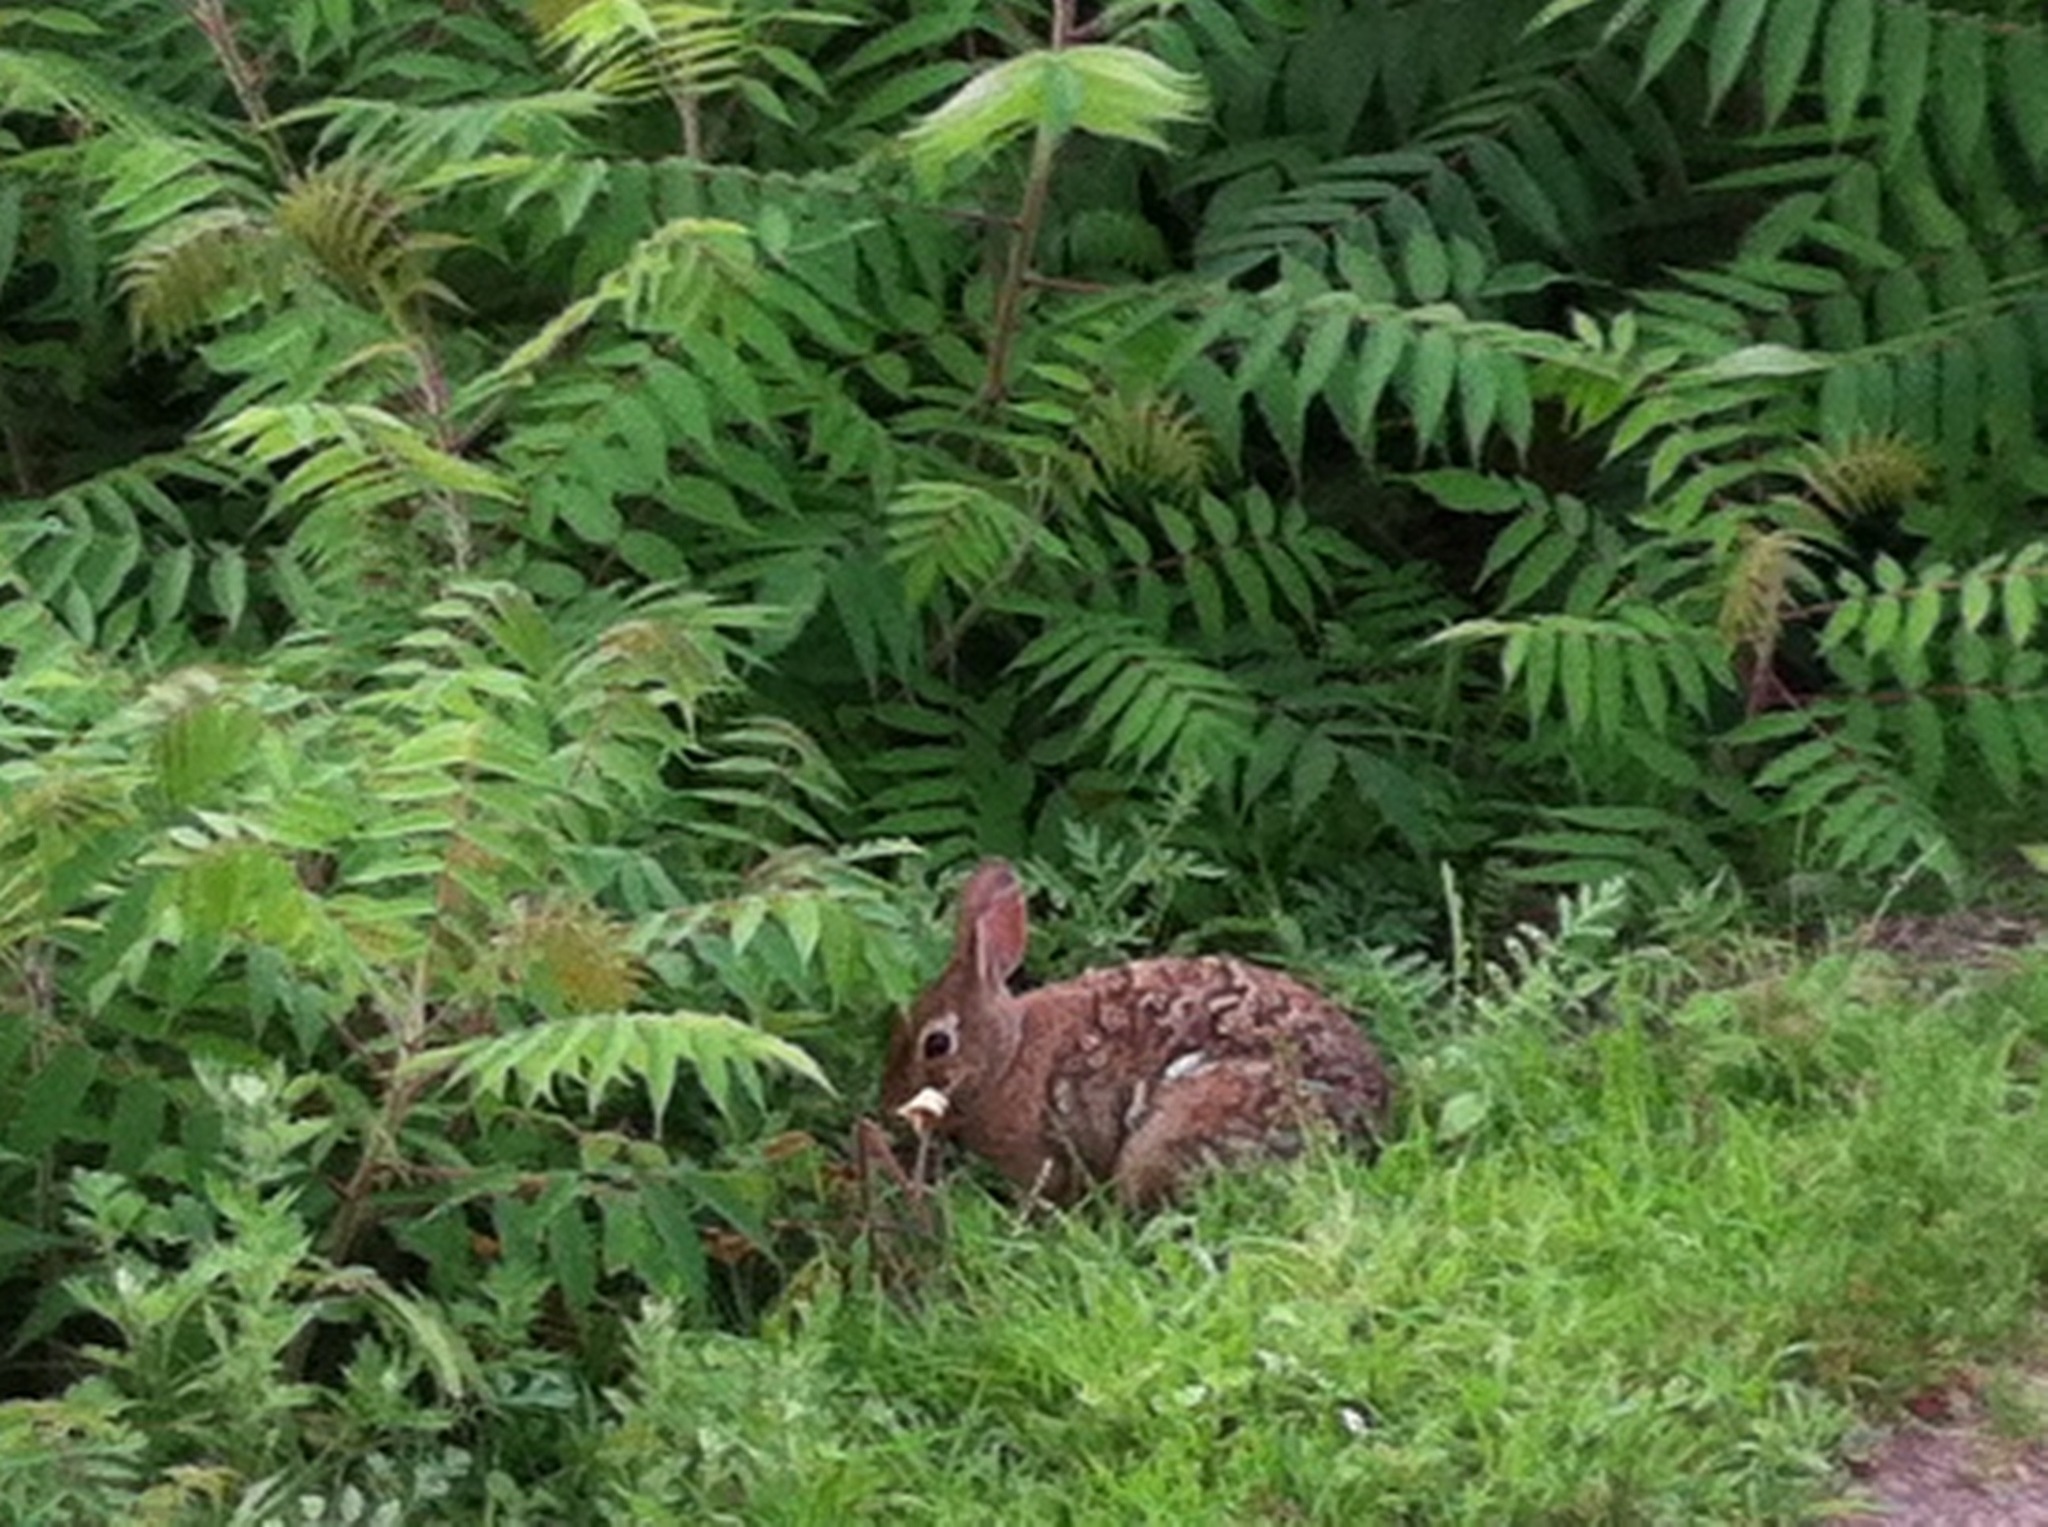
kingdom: Animalia
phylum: Chordata
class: Mammalia
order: Lagomorpha
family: Leporidae
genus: Sylvilagus
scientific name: Sylvilagus floridanus
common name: Eastern cottontail
